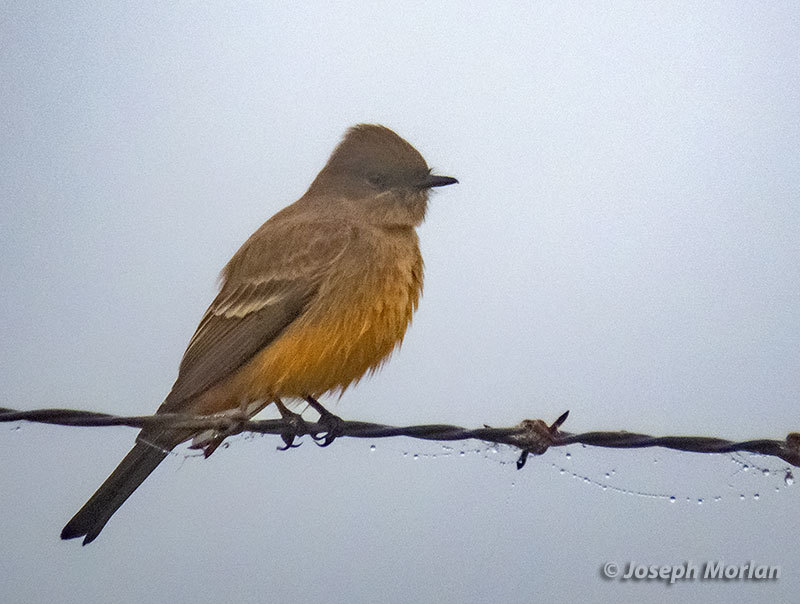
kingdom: Animalia
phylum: Chordata
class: Aves
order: Passeriformes
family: Tyrannidae
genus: Sayornis
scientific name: Sayornis saya
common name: Say's phoebe
